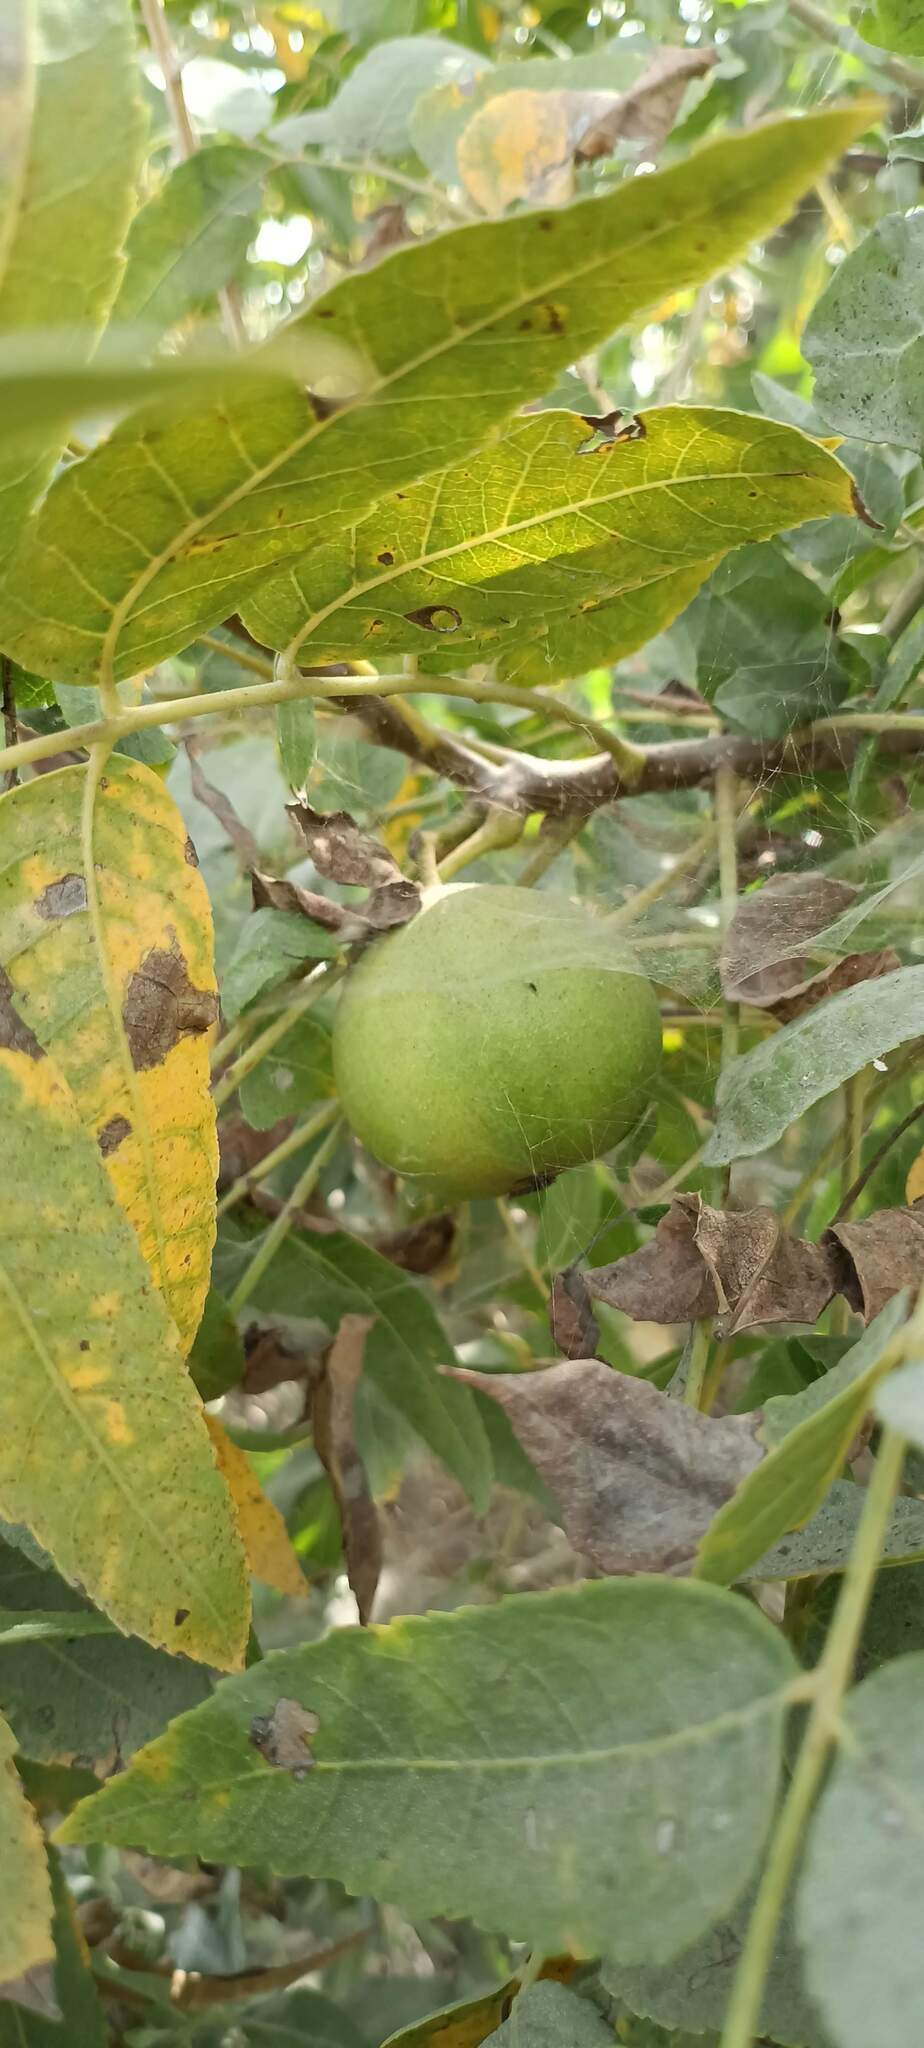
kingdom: Plantae
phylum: Tracheophyta
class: Magnoliopsida
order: Fagales
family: Juglandaceae
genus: Juglans
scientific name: Juglans californica
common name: Southern california black walnut
